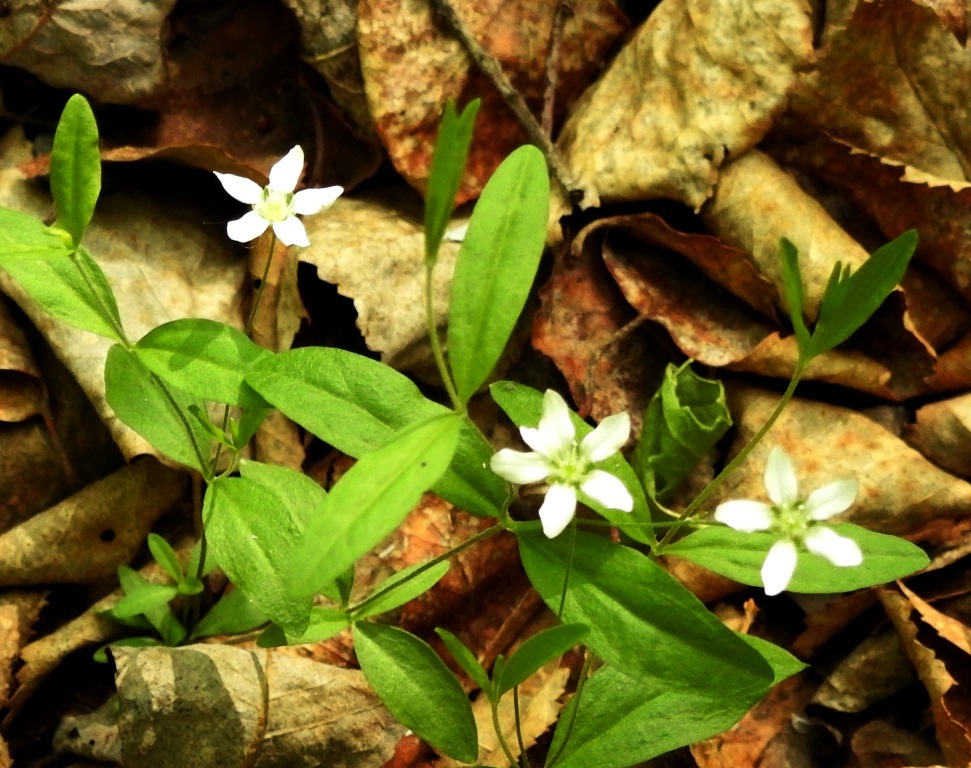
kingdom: Plantae
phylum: Tracheophyta
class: Magnoliopsida
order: Caryophyllales
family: Caryophyllaceae
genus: Moehringia
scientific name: Moehringia lateriflora
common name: Blunt-leaved sandwort
